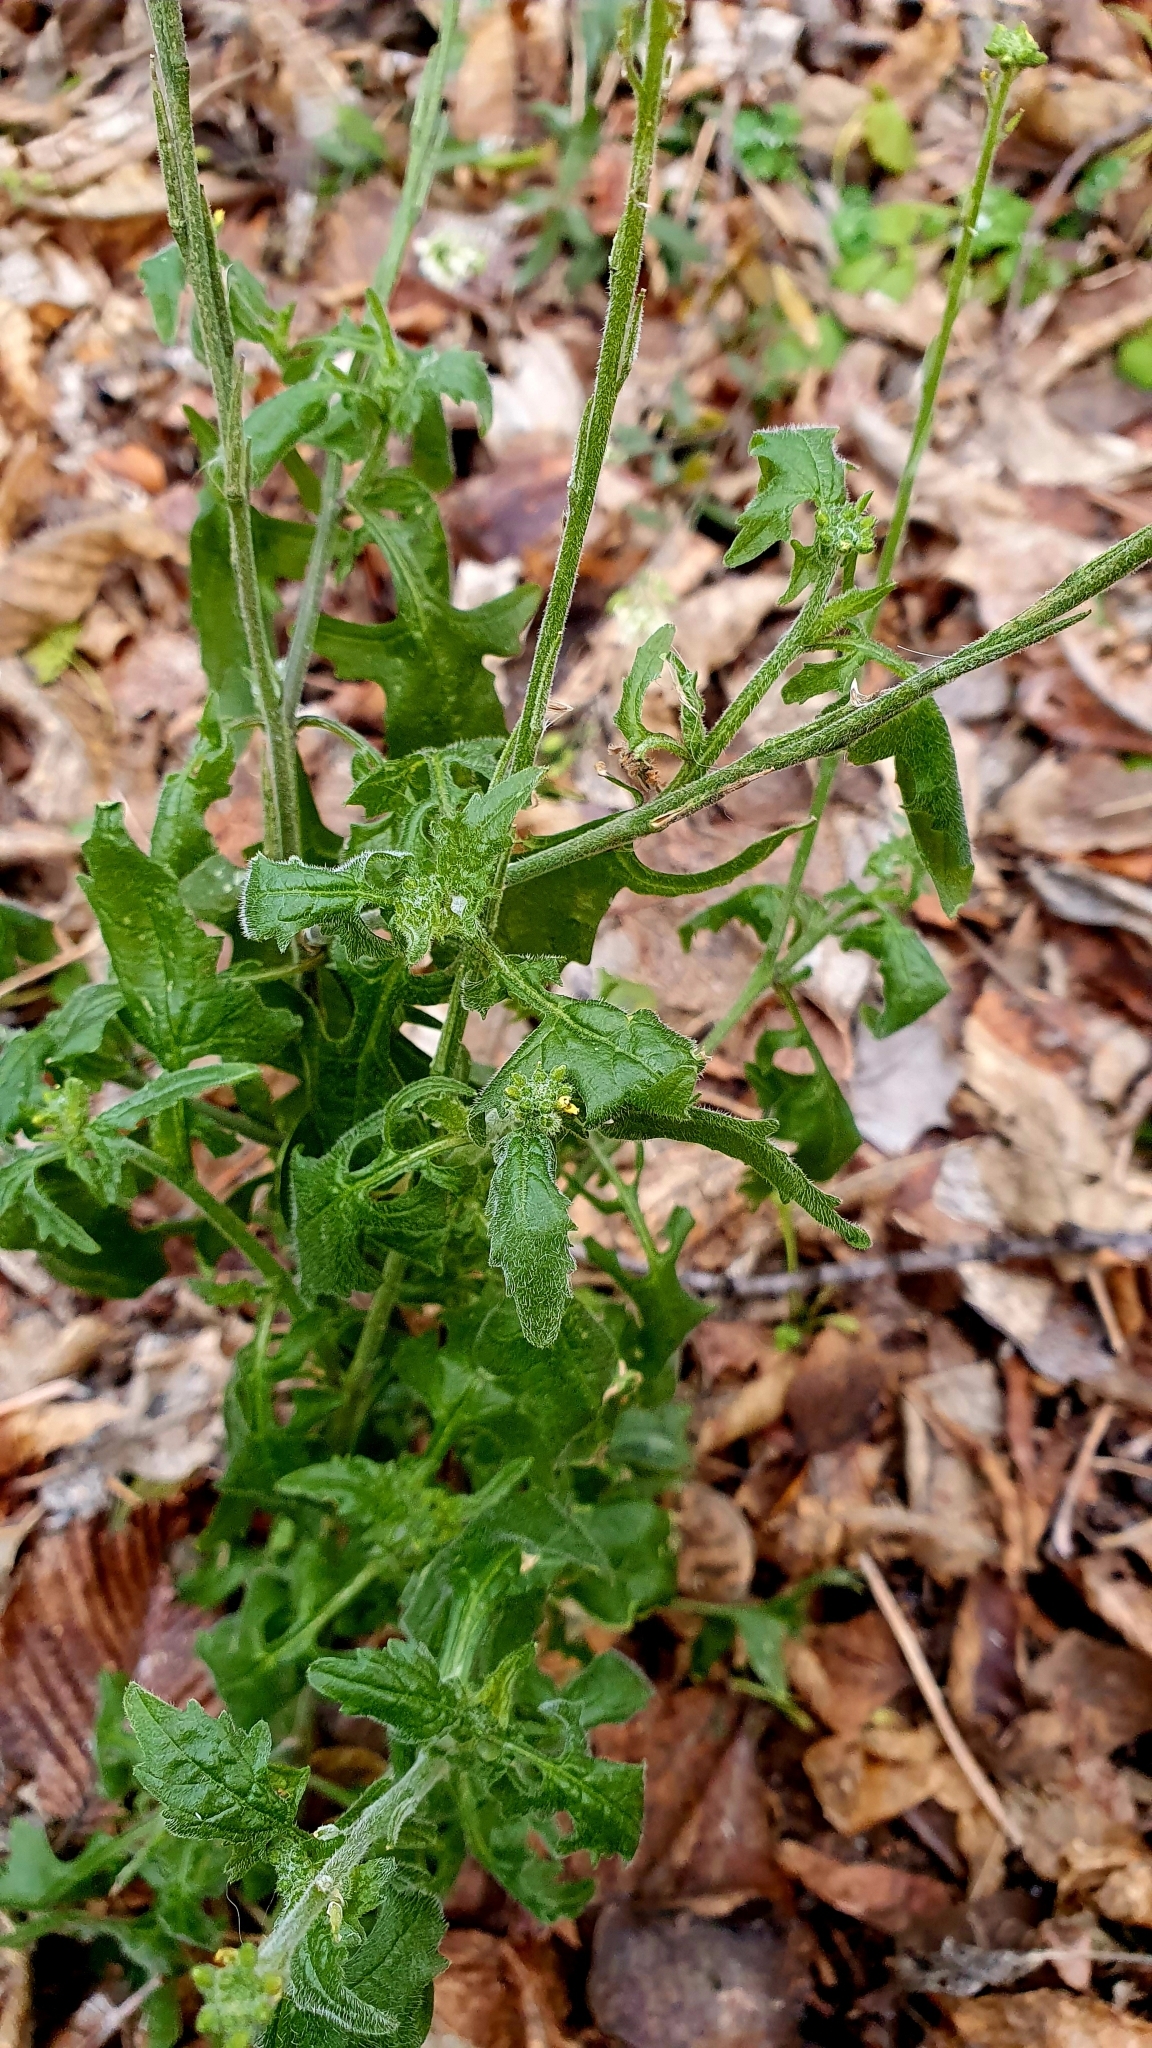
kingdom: Plantae
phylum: Tracheophyta
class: Magnoliopsida
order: Brassicales
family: Brassicaceae
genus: Sisymbrium
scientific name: Sisymbrium officinale
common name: Hedge mustard
